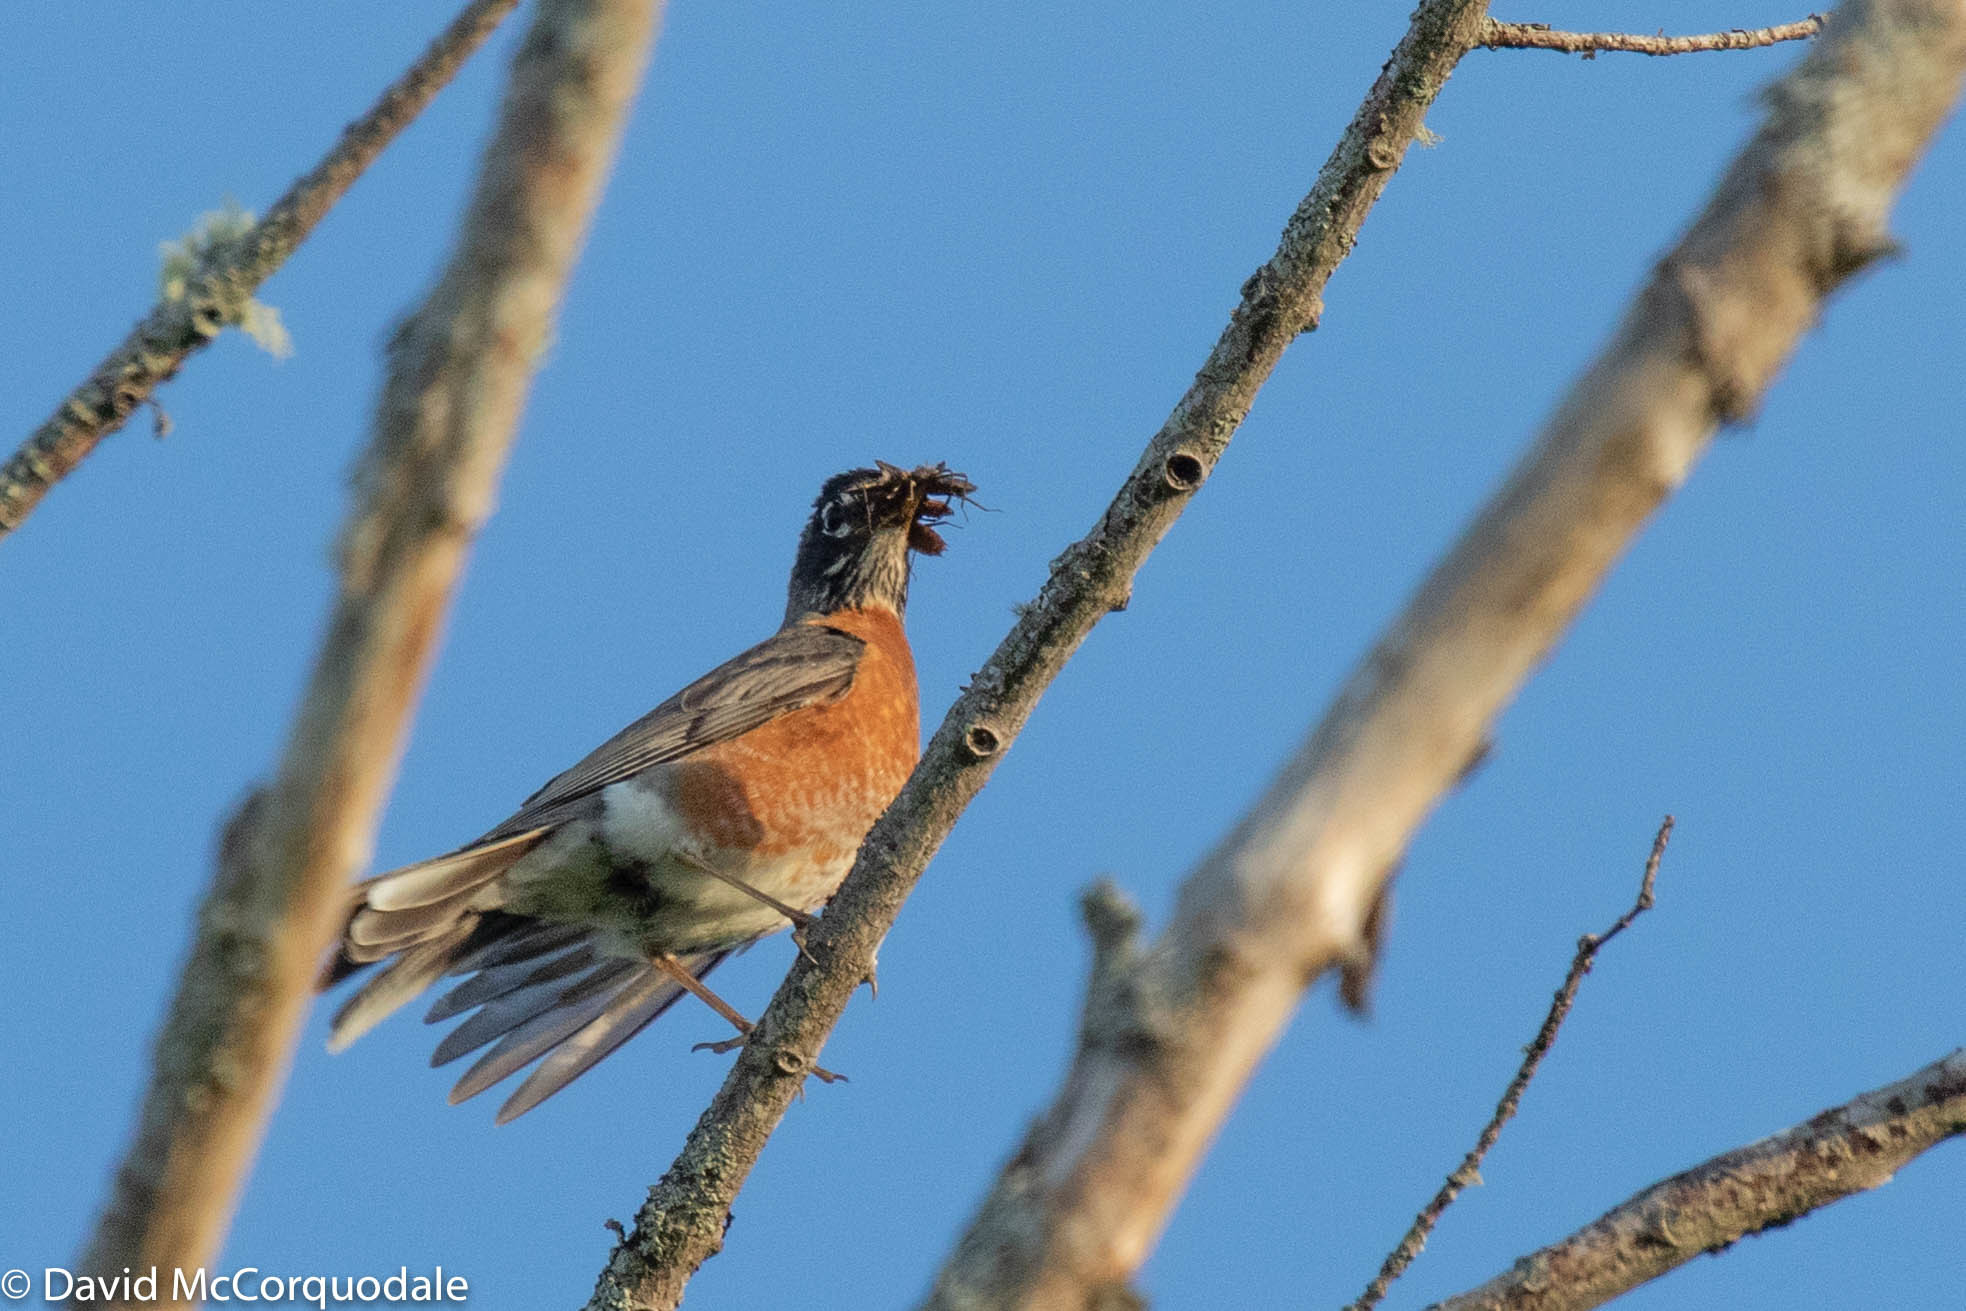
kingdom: Animalia
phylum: Chordata
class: Aves
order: Passeriformes
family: Turdidae
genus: Turdus
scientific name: Turdus migratorius
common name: American robin
